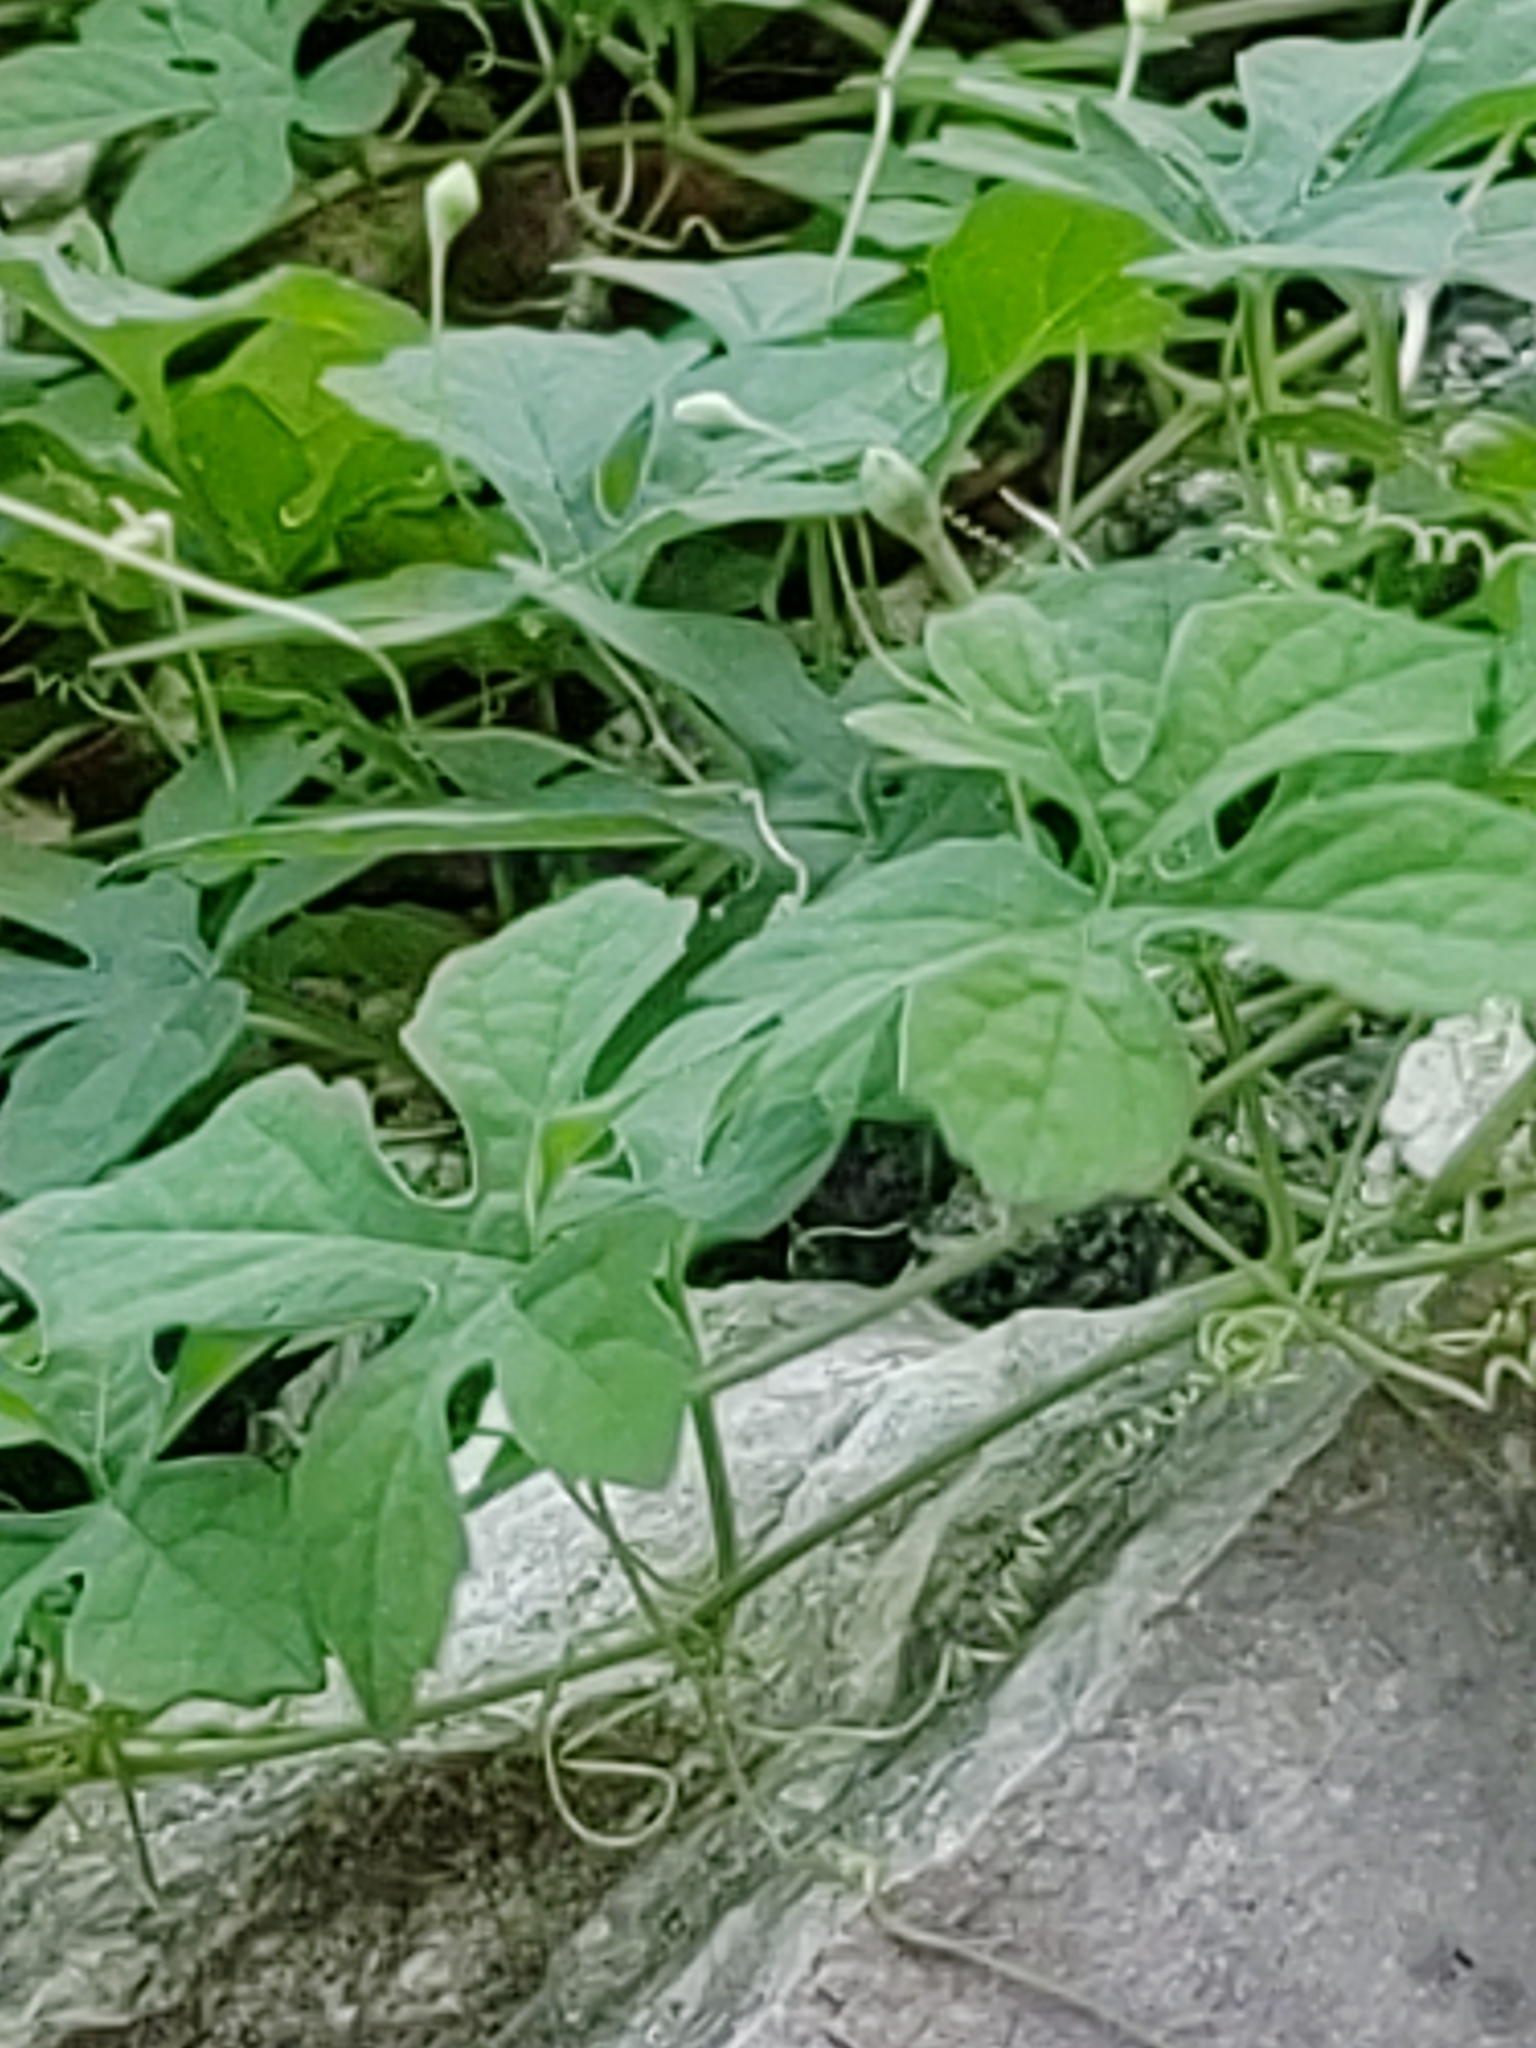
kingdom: Plantae
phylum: Tracheophyta
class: Magnoliopsida
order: Cucurbitales
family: Cucurbitaceae
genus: Momordica
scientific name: Momordica charantia
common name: Balsampear
